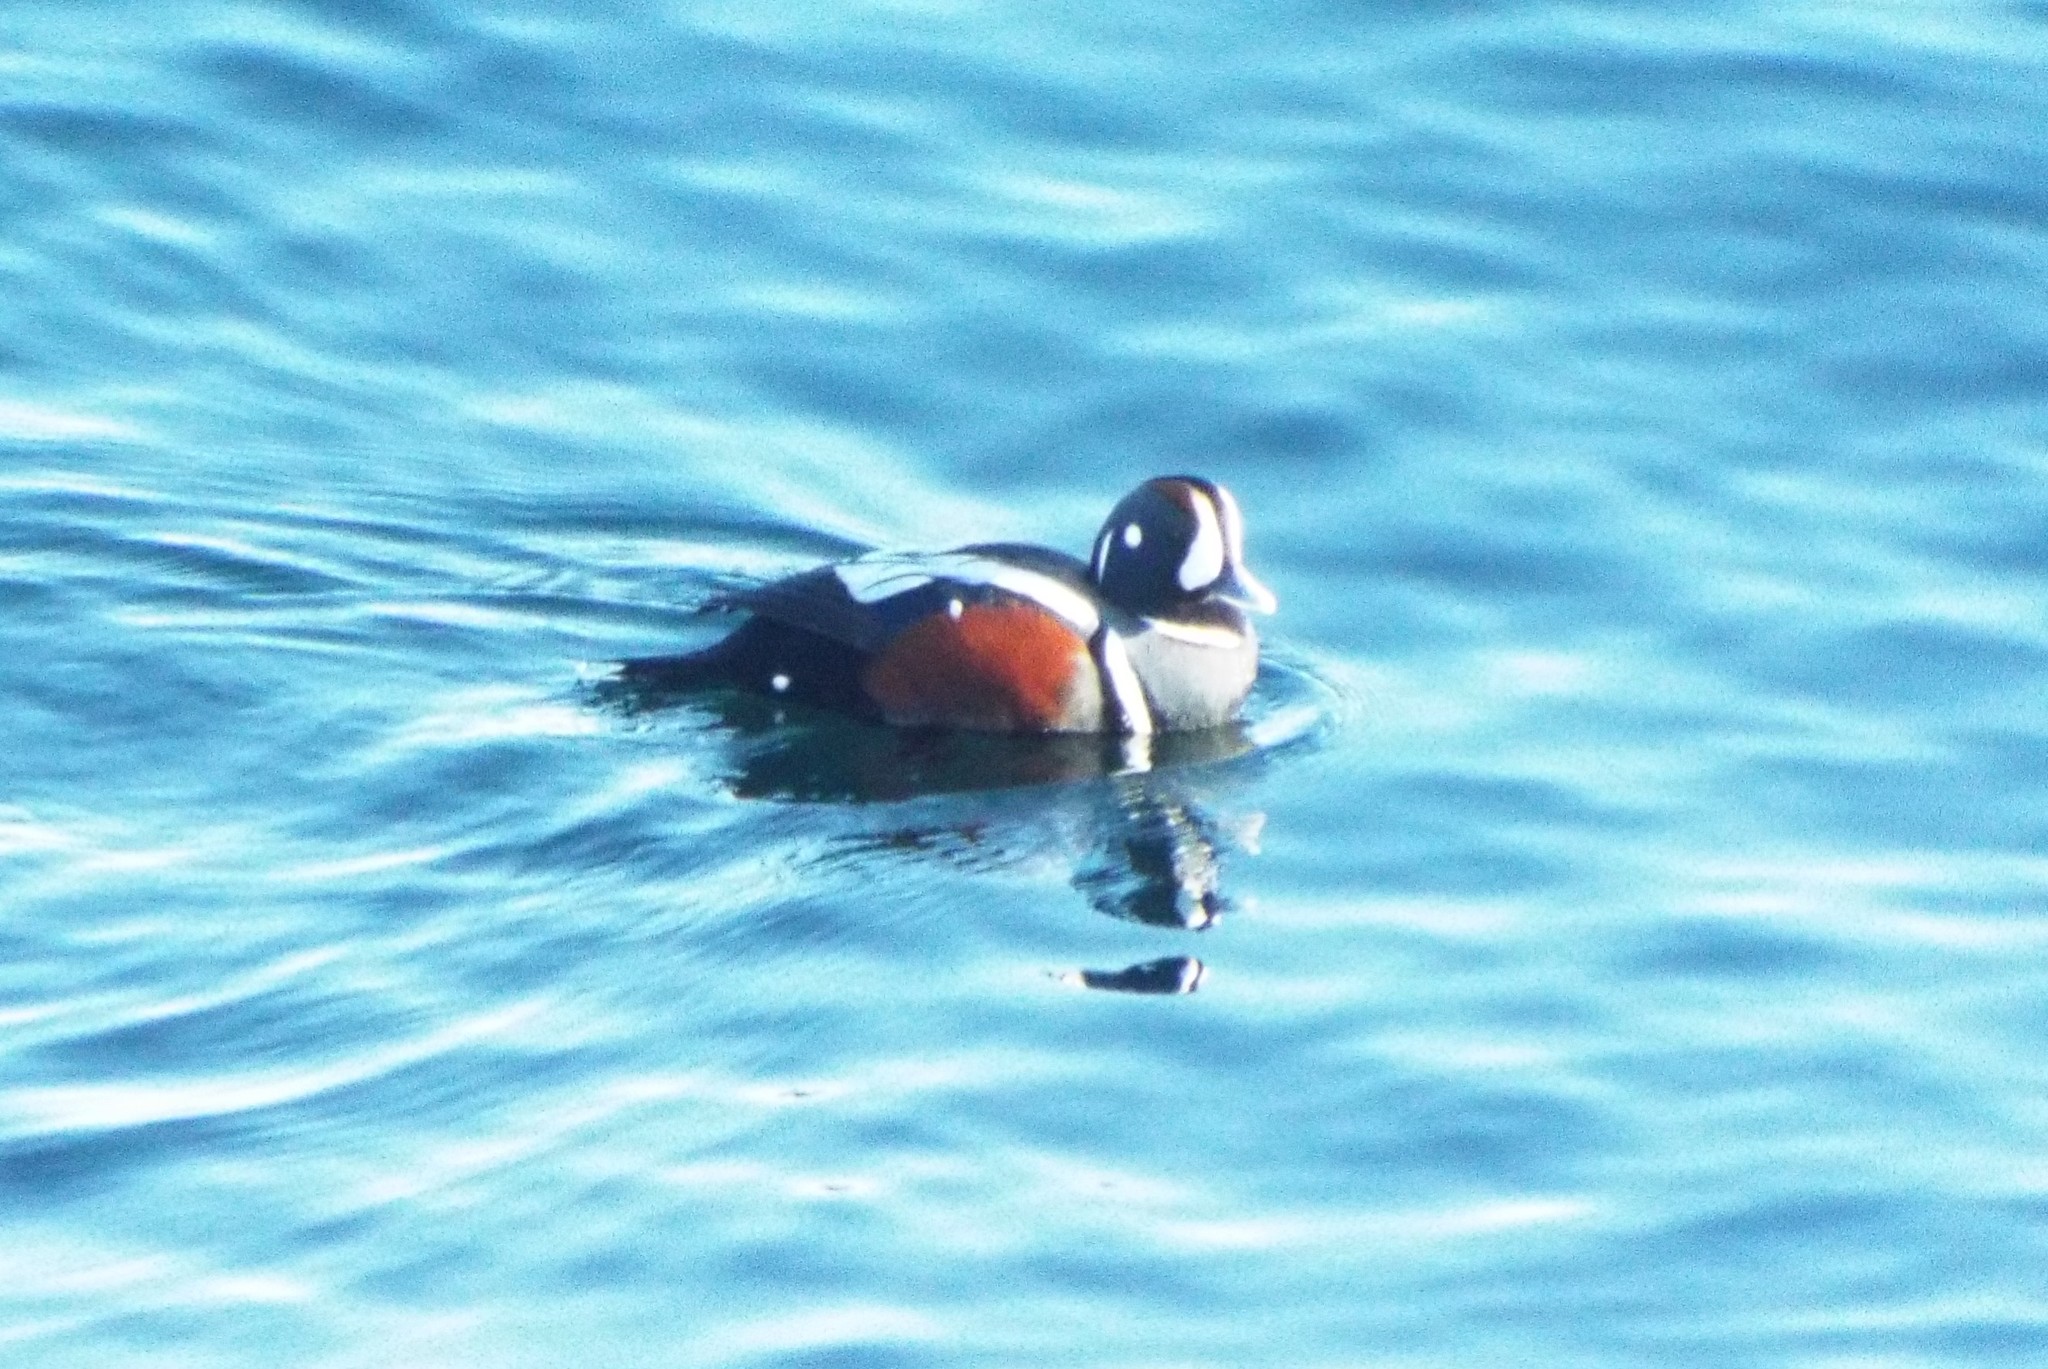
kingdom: Animalia
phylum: Chordata
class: Aves
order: Anseriformes
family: Anatidae
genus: Histrionicus
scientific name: Histrionicus histrionicus
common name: Harlequin duck
